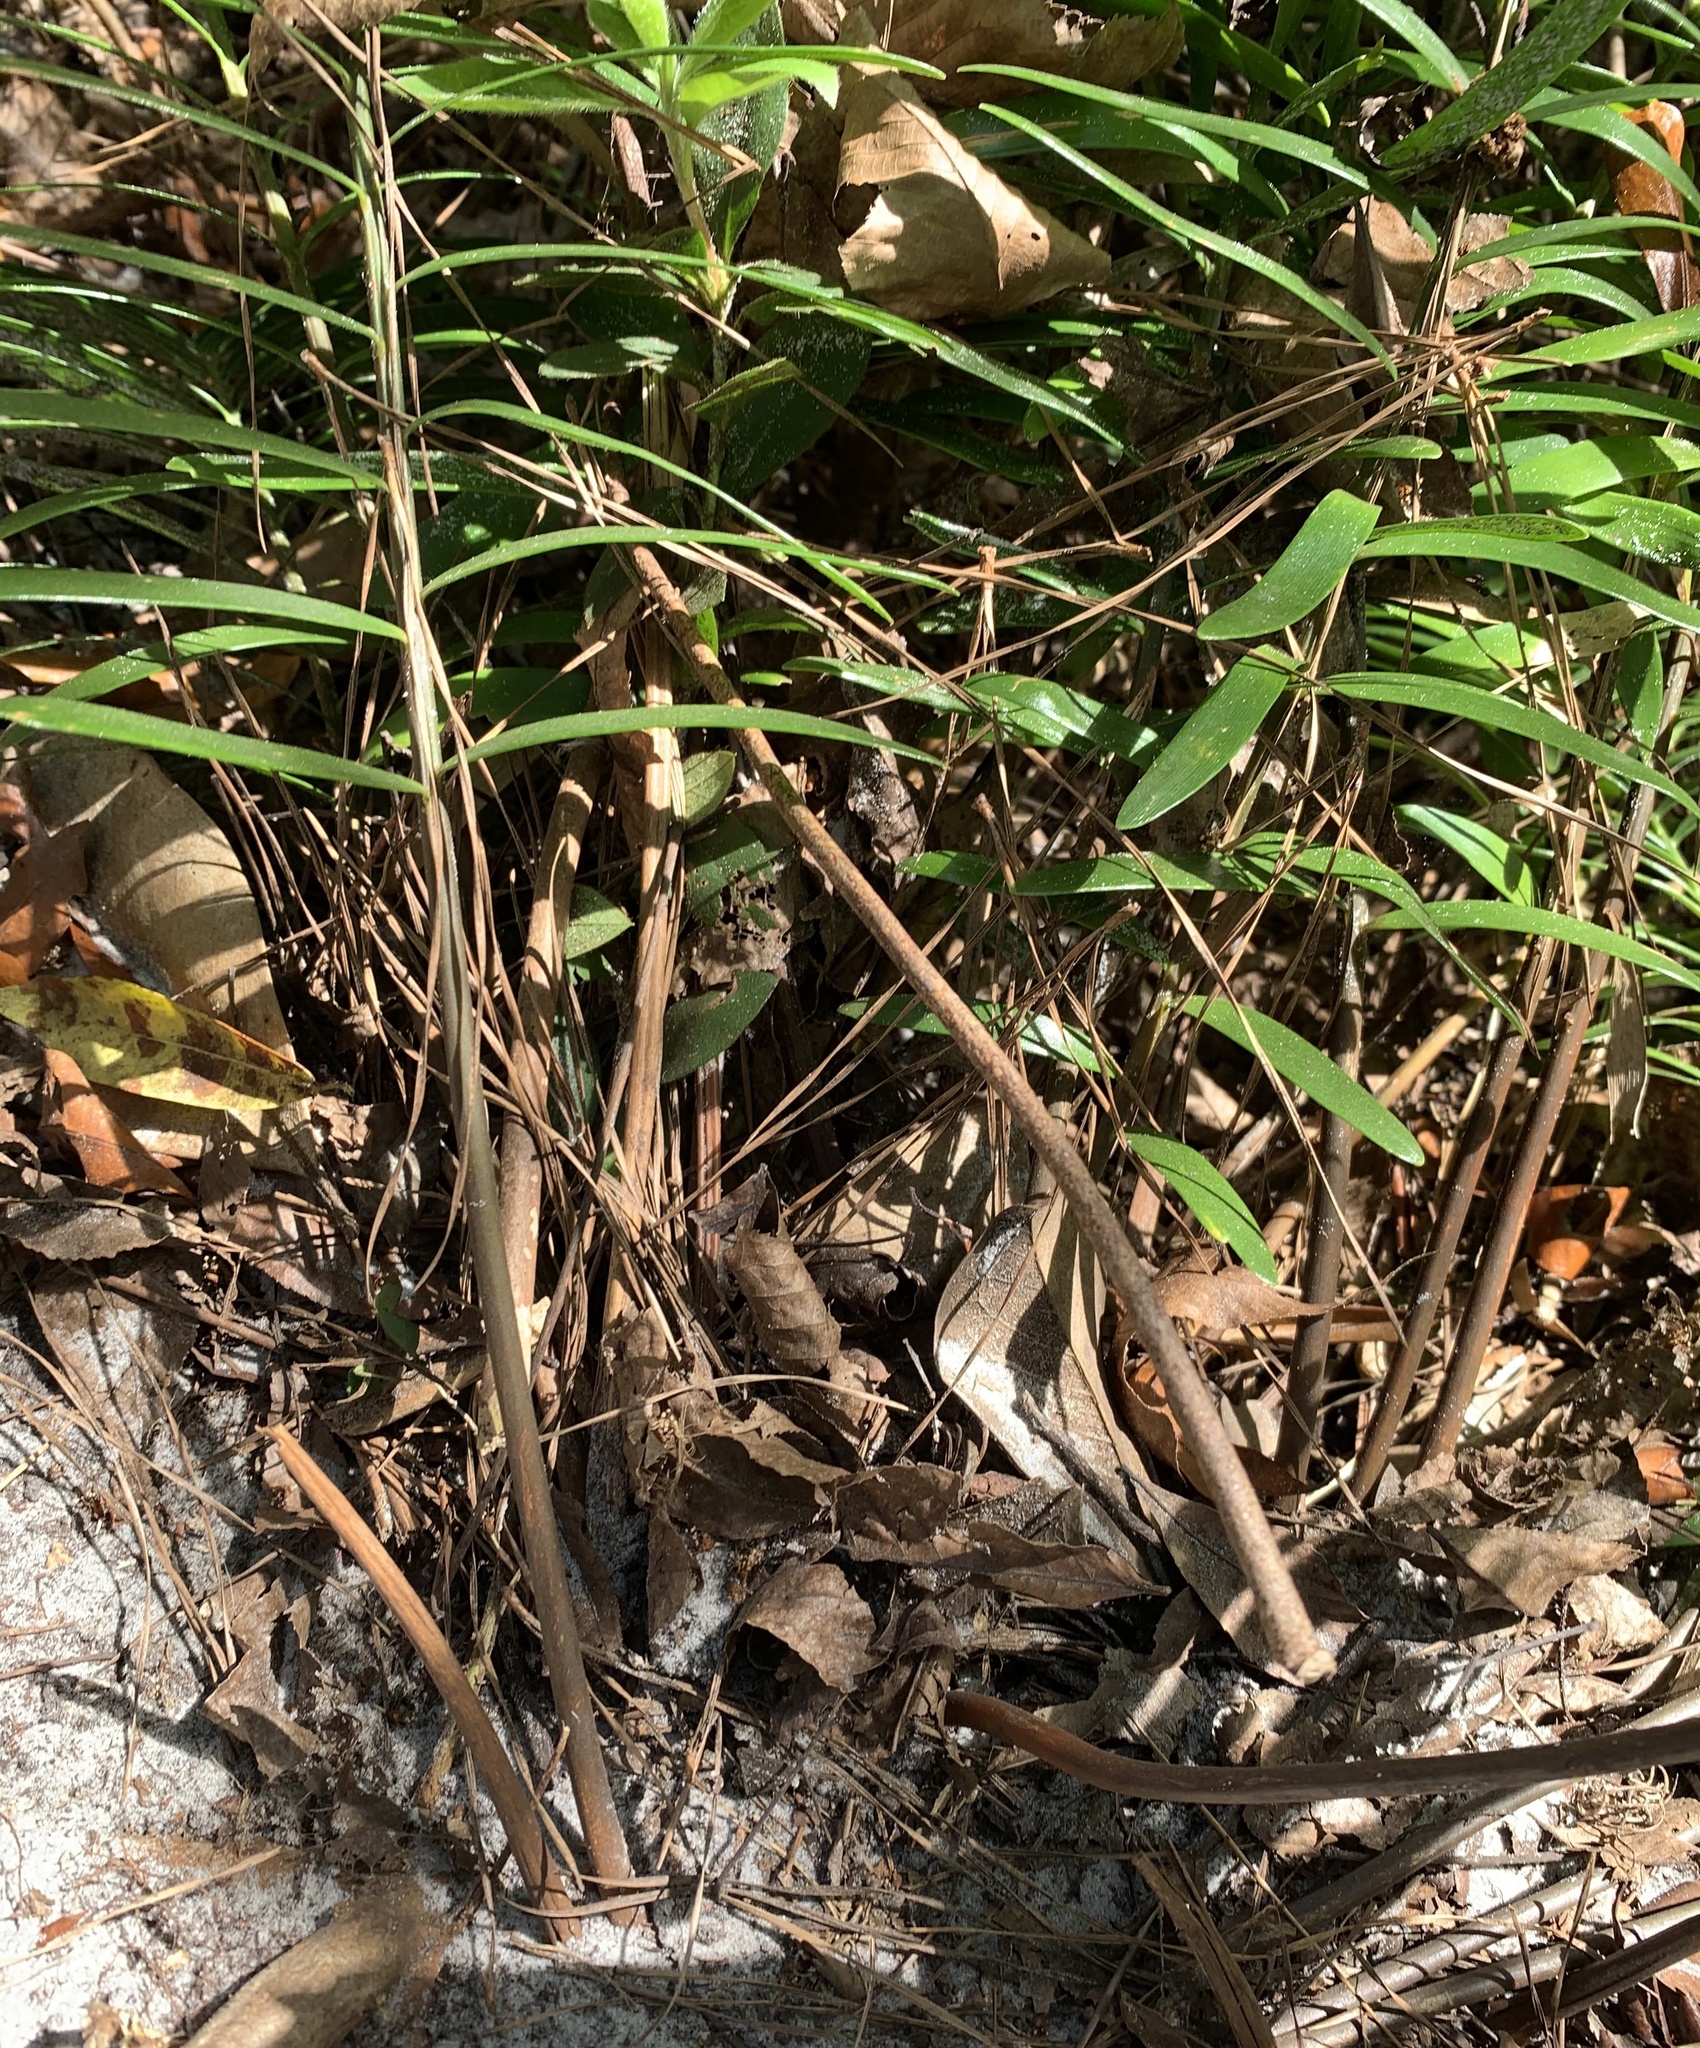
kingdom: Plantae
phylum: Tracheophyta
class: Cycadopsida
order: Cycadales
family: Zamiaceae
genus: Zamia
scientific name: Zamia integrifolia
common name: Florida arrowroot
